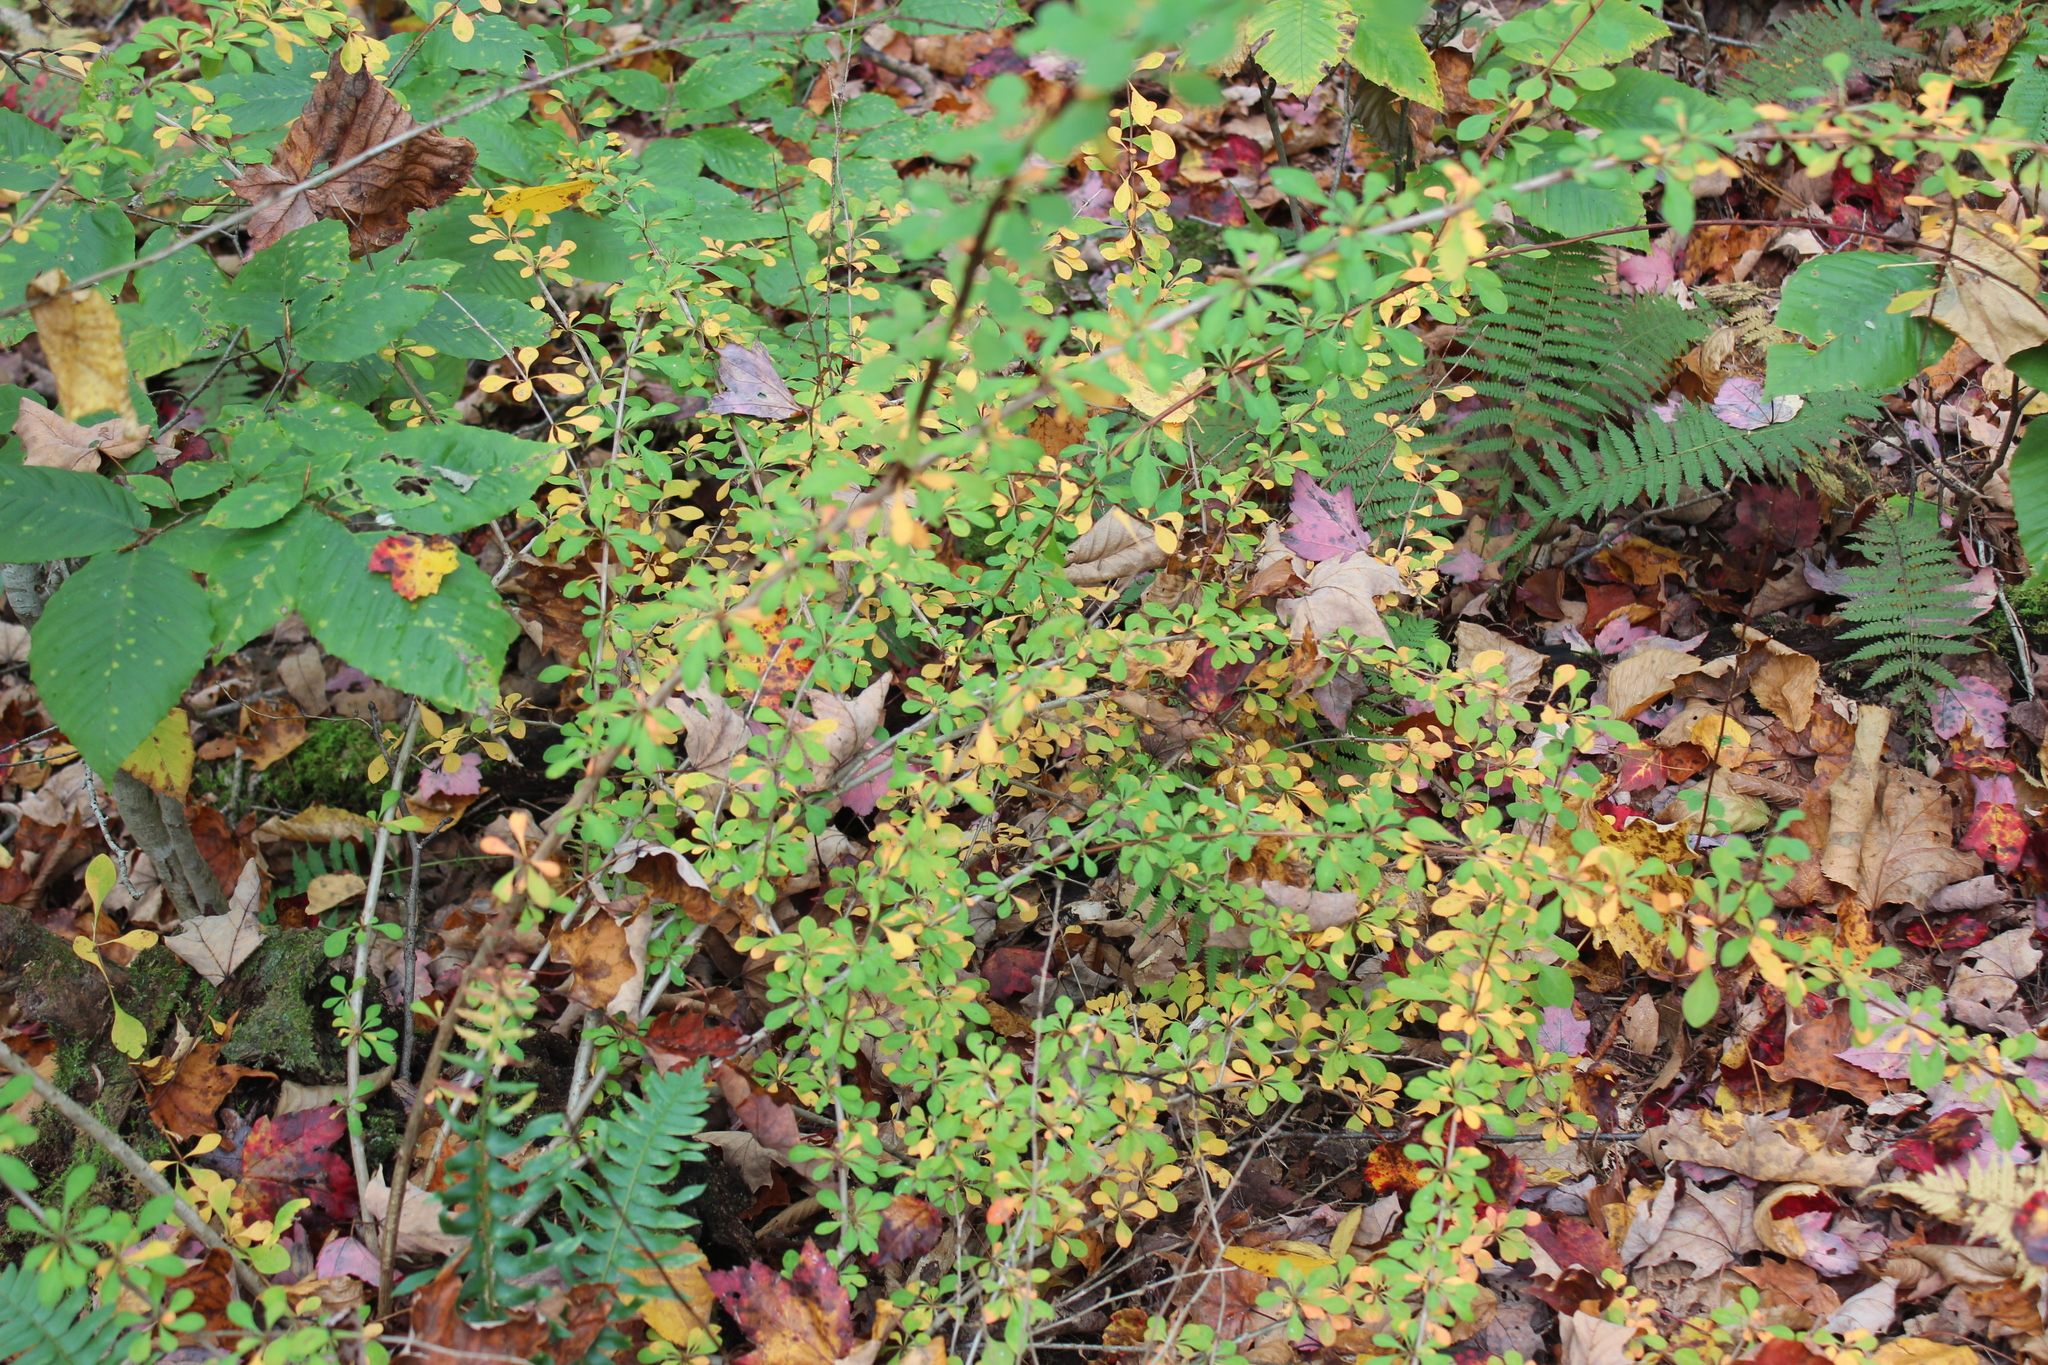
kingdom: Plantae
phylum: Tracheophyta
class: Magnoliopsida
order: Ranunculales
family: Berberidaceae
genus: Berberis
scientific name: Berberis thunbergii
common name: Japanese barberry
